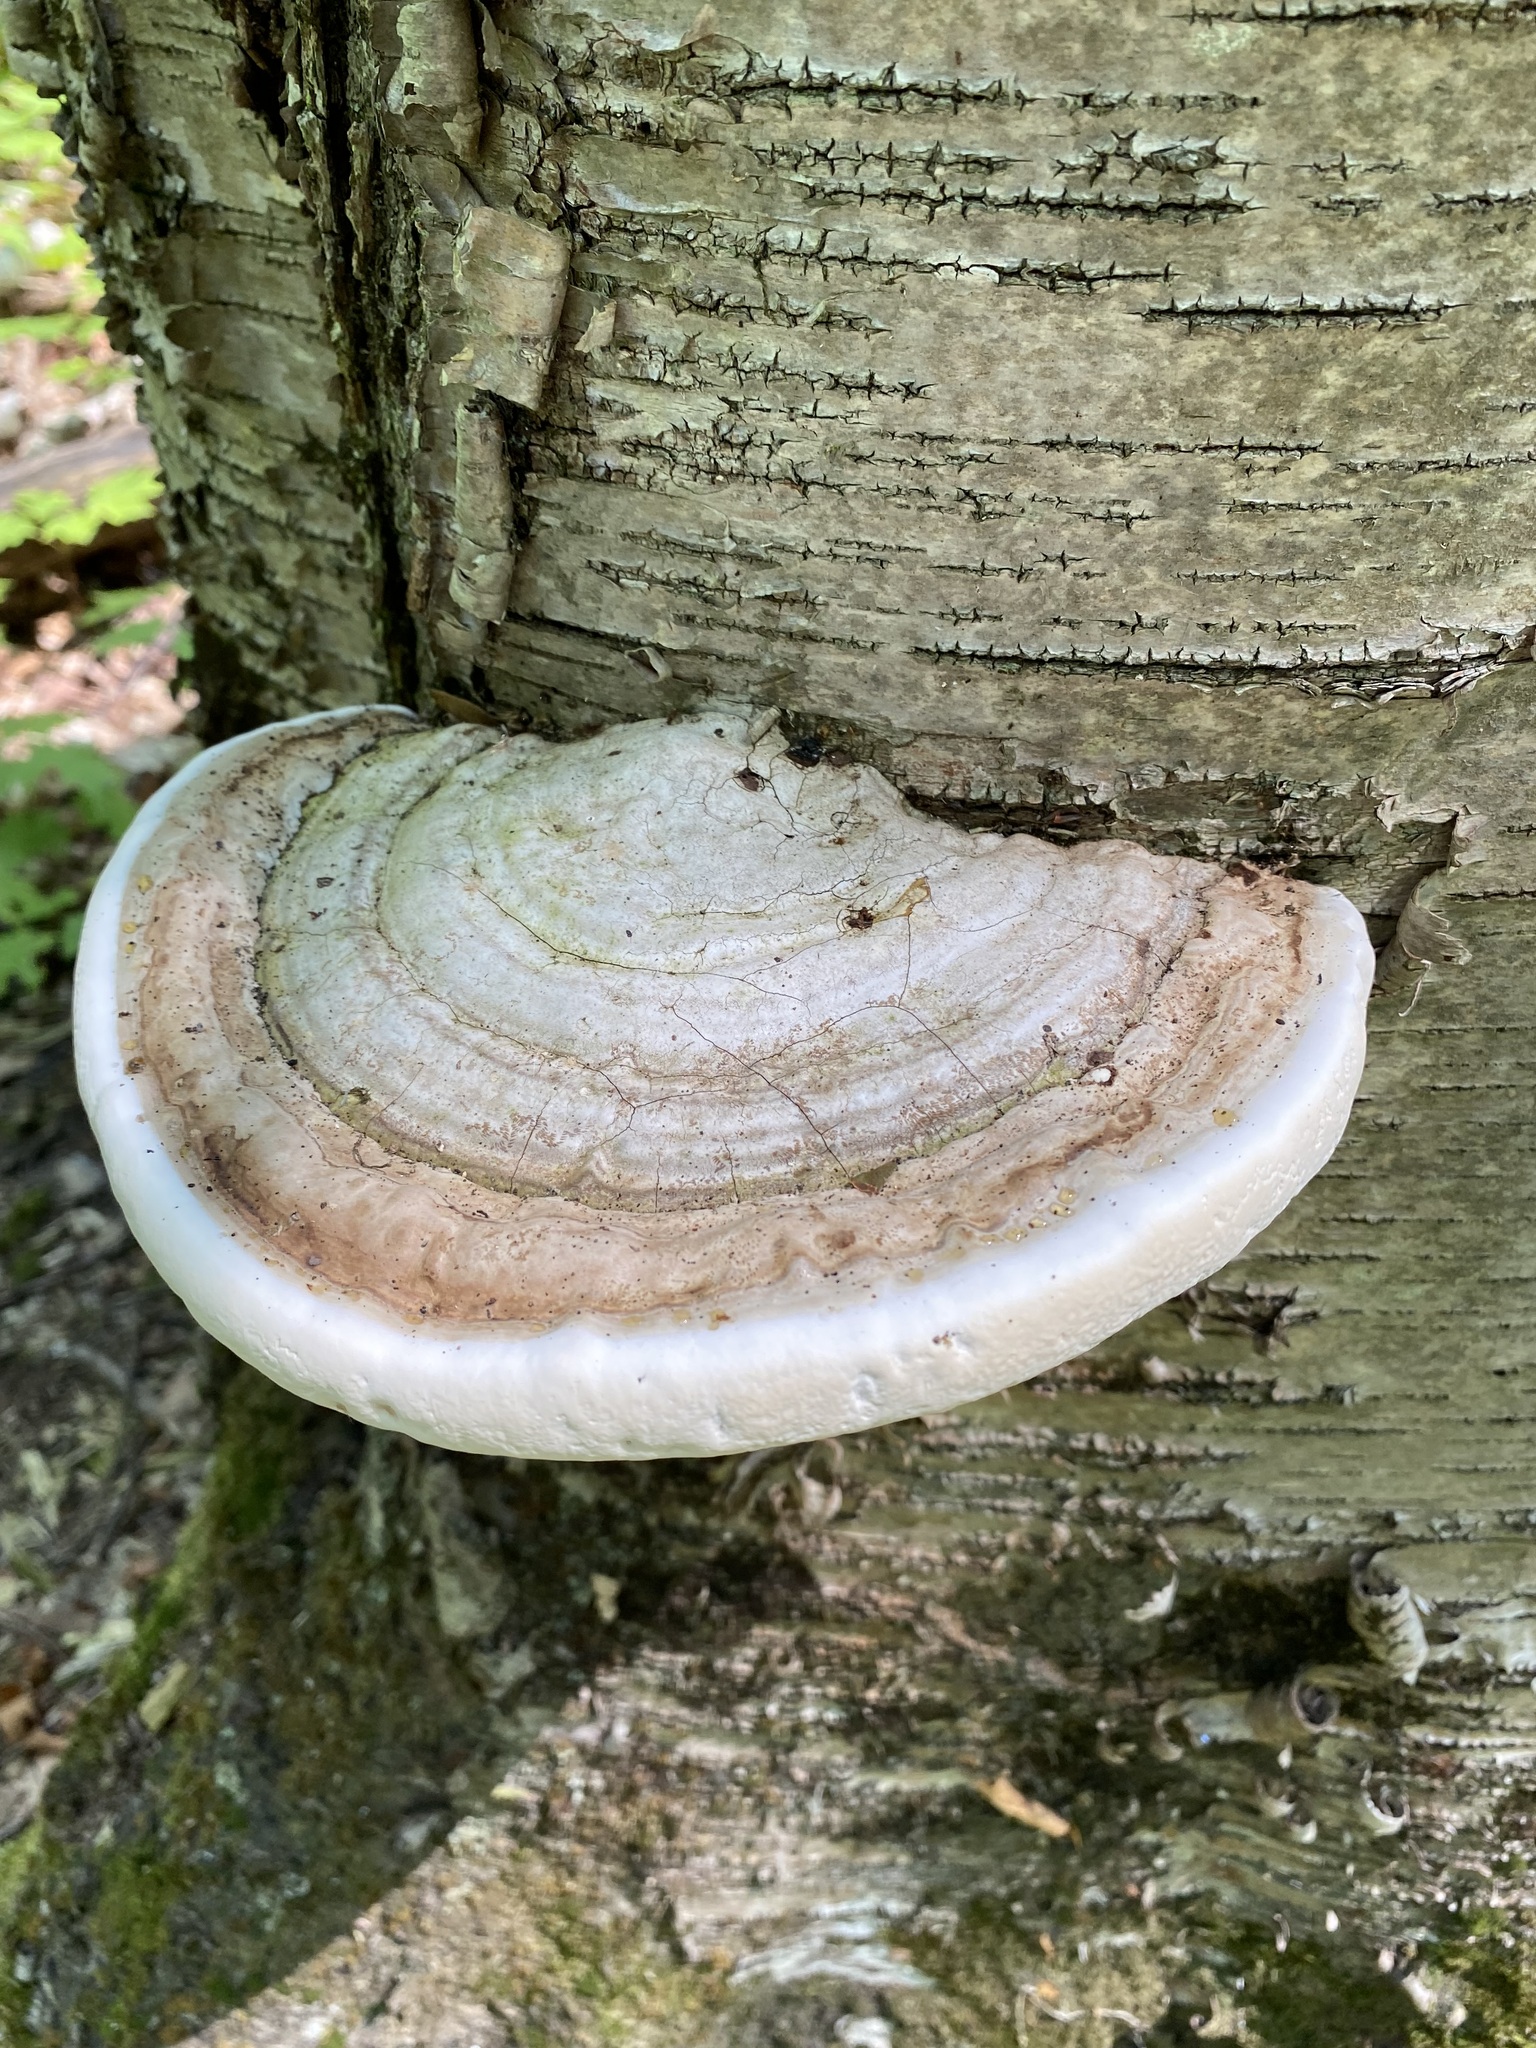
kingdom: Fungi
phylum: Basidiomycota
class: Agaricomycetes
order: Polyporales
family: Polyporaceae
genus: Ganoderma
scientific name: Ganoderma applanatum
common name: Artist's bracket
